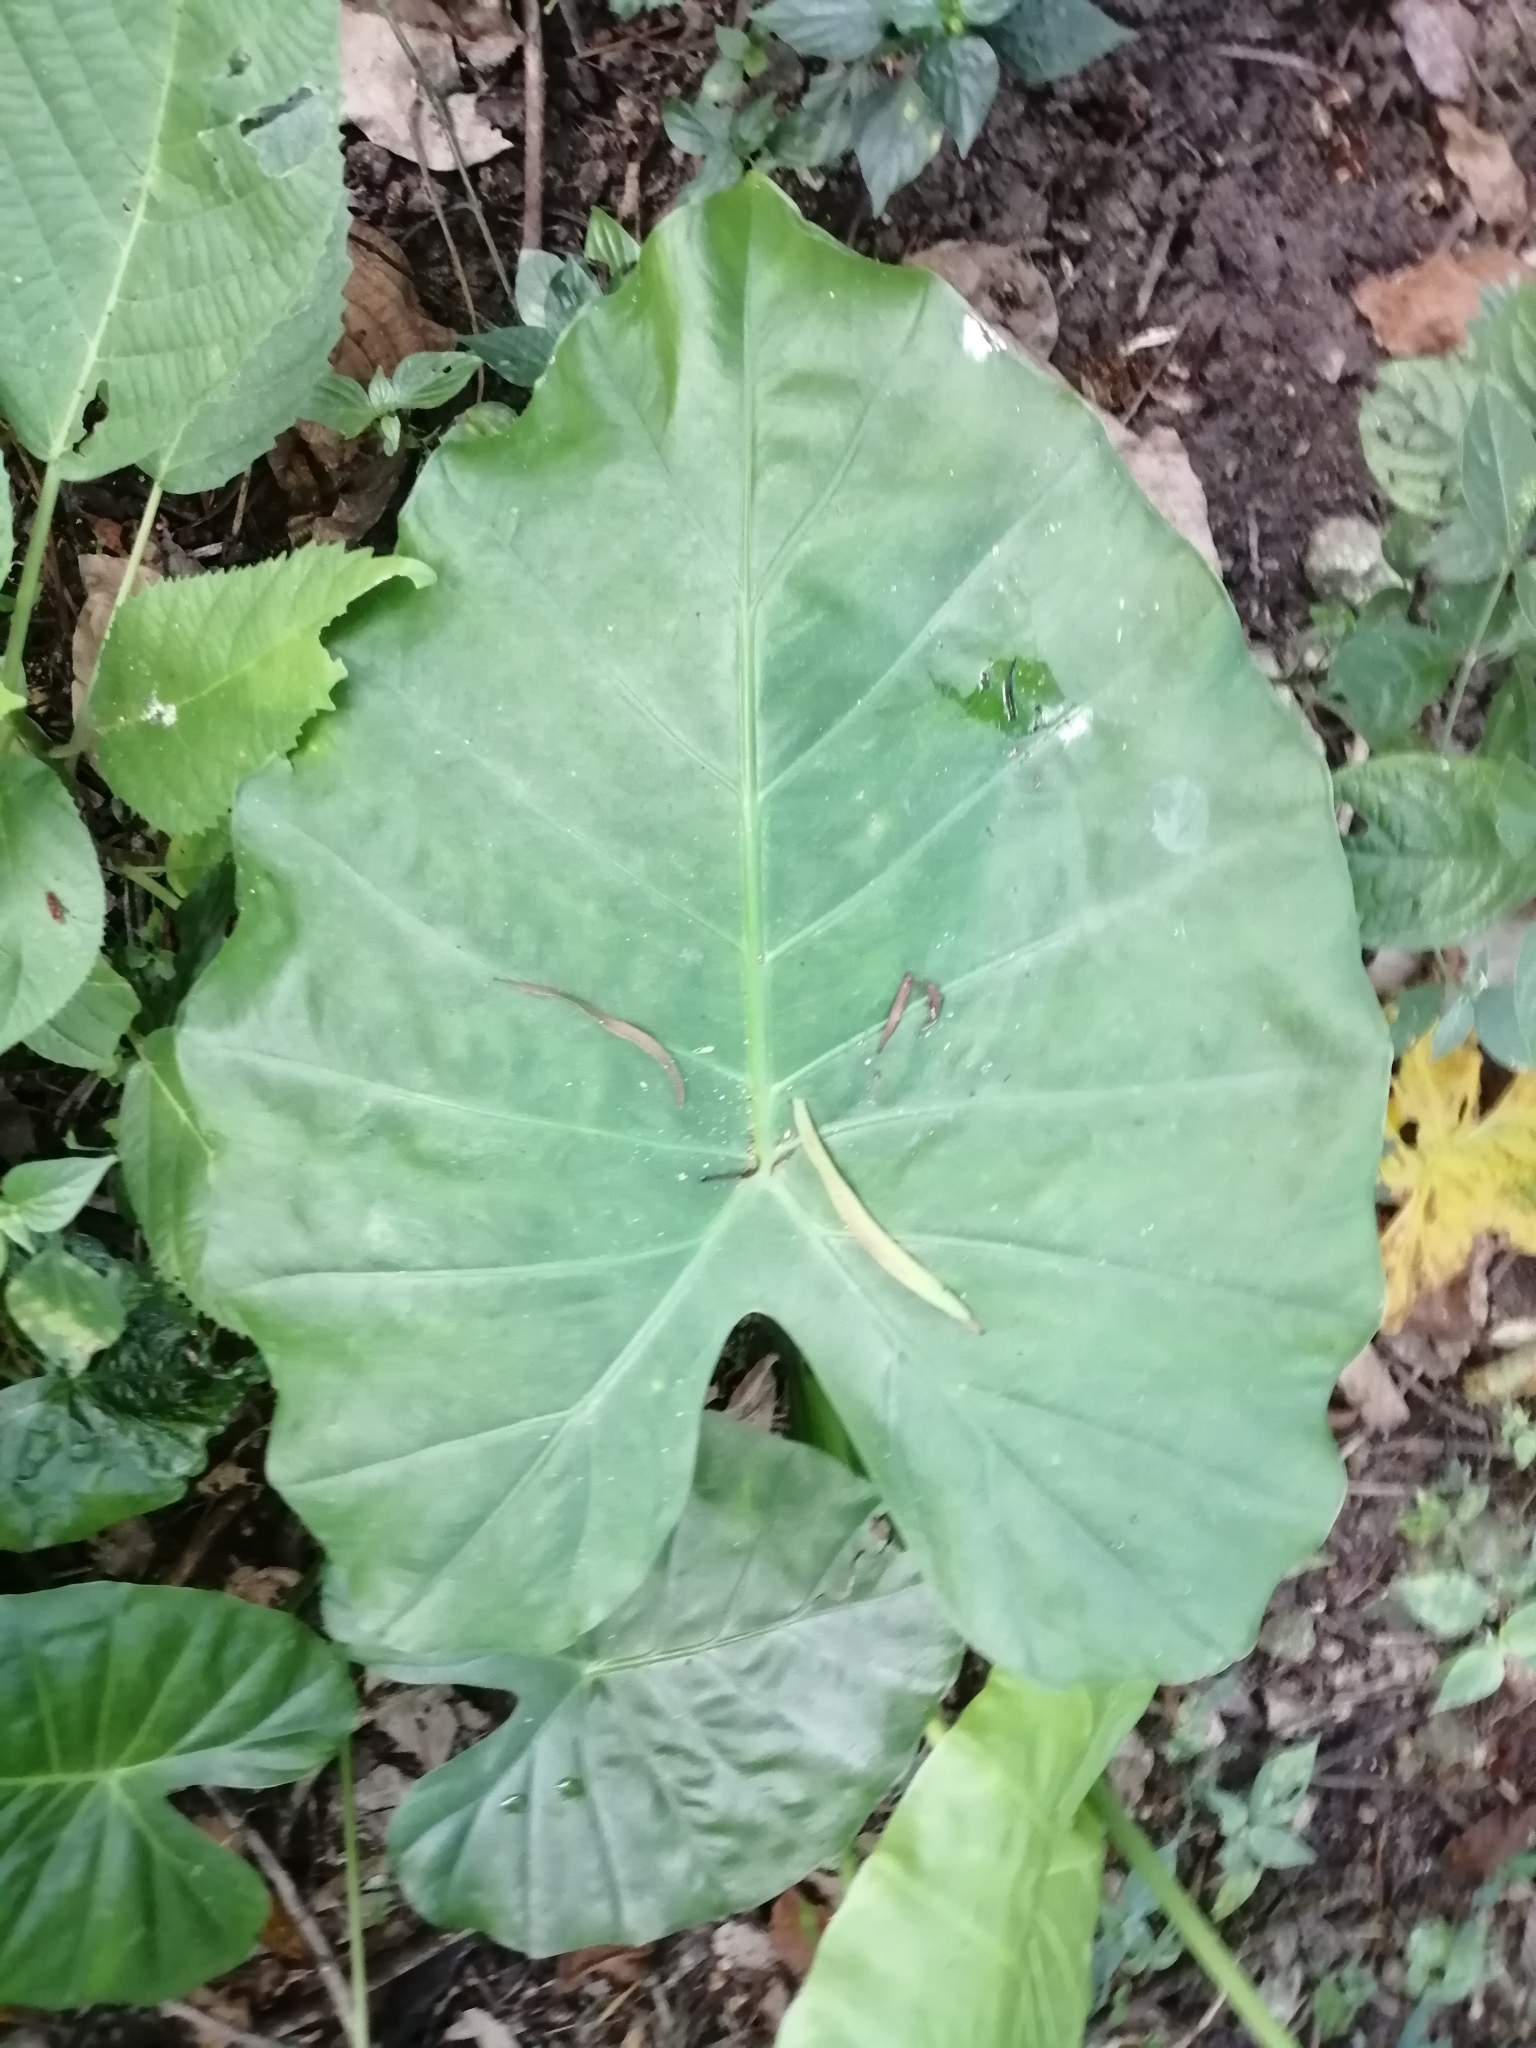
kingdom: Plantae
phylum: Tracheophyta
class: Liliopsida
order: Alismatales
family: Araceae
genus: Alocasia
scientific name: Alocasia odora
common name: Asian taro
